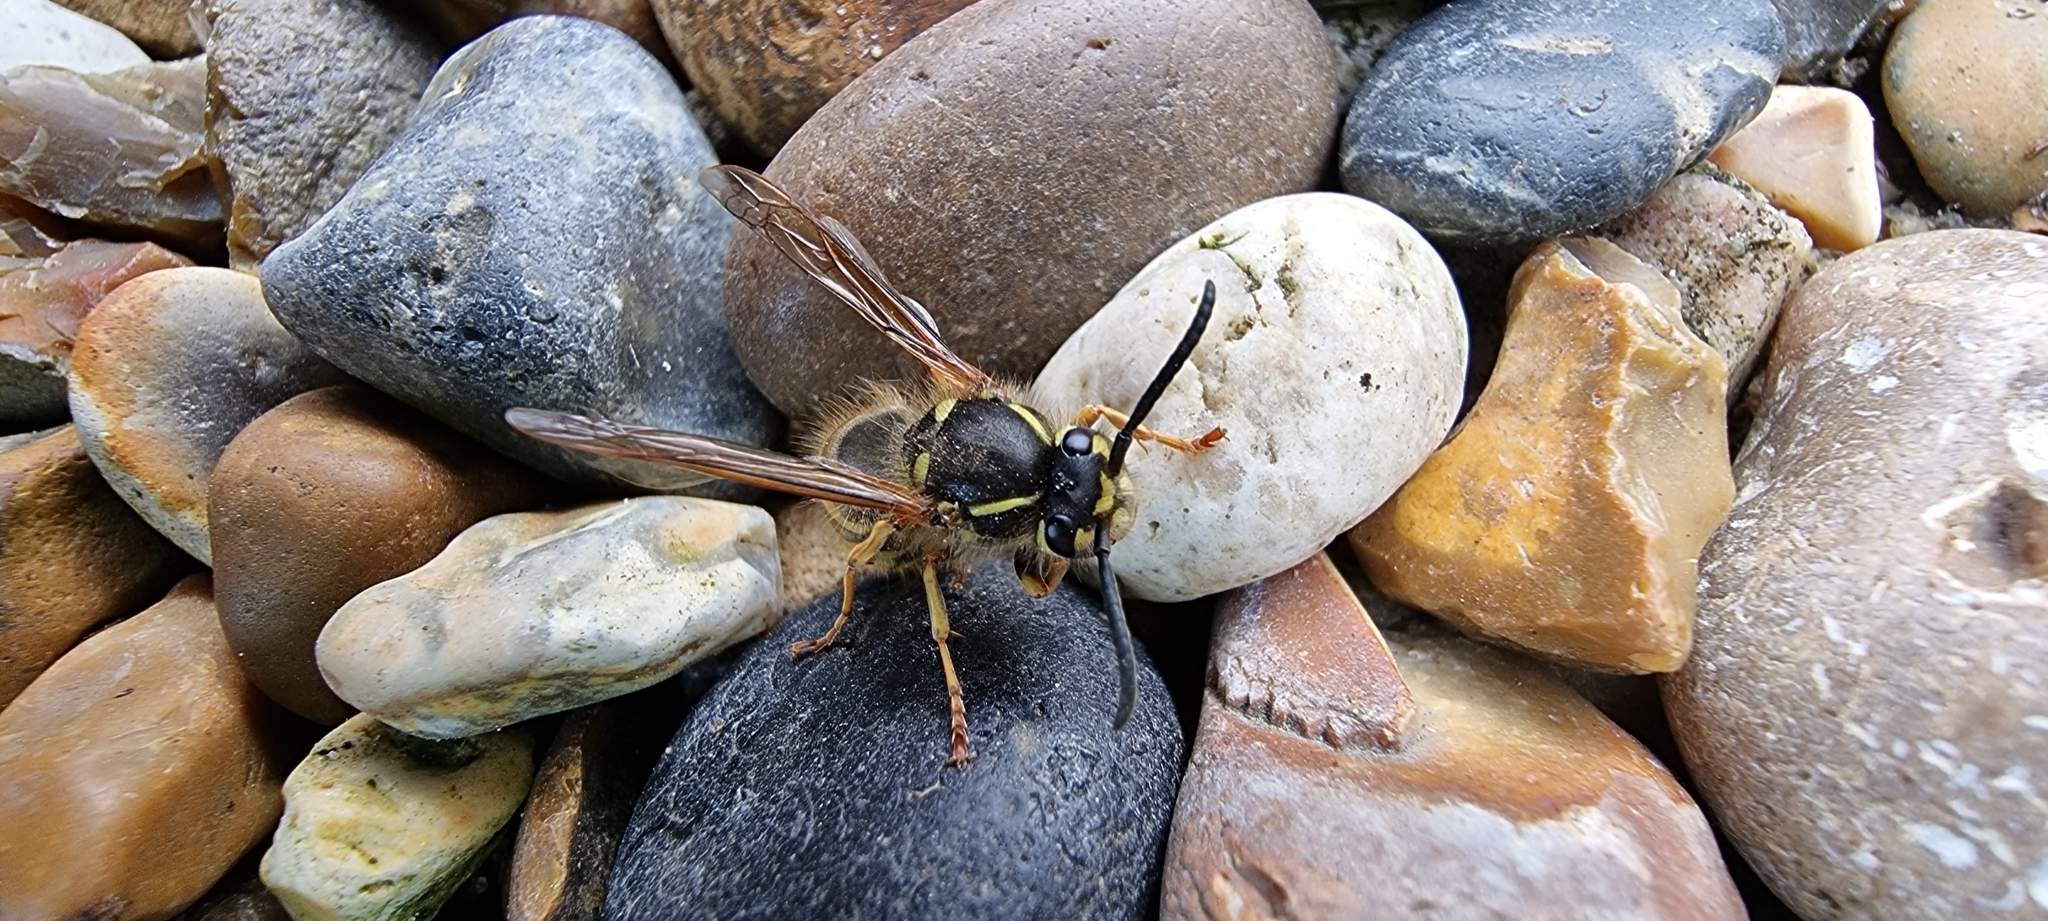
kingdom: Animalia
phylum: Arthropoda
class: Insecta
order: Hymenoptera
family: Vespidae
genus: Vespula
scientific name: Vespula vulgaris
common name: Common wasp
